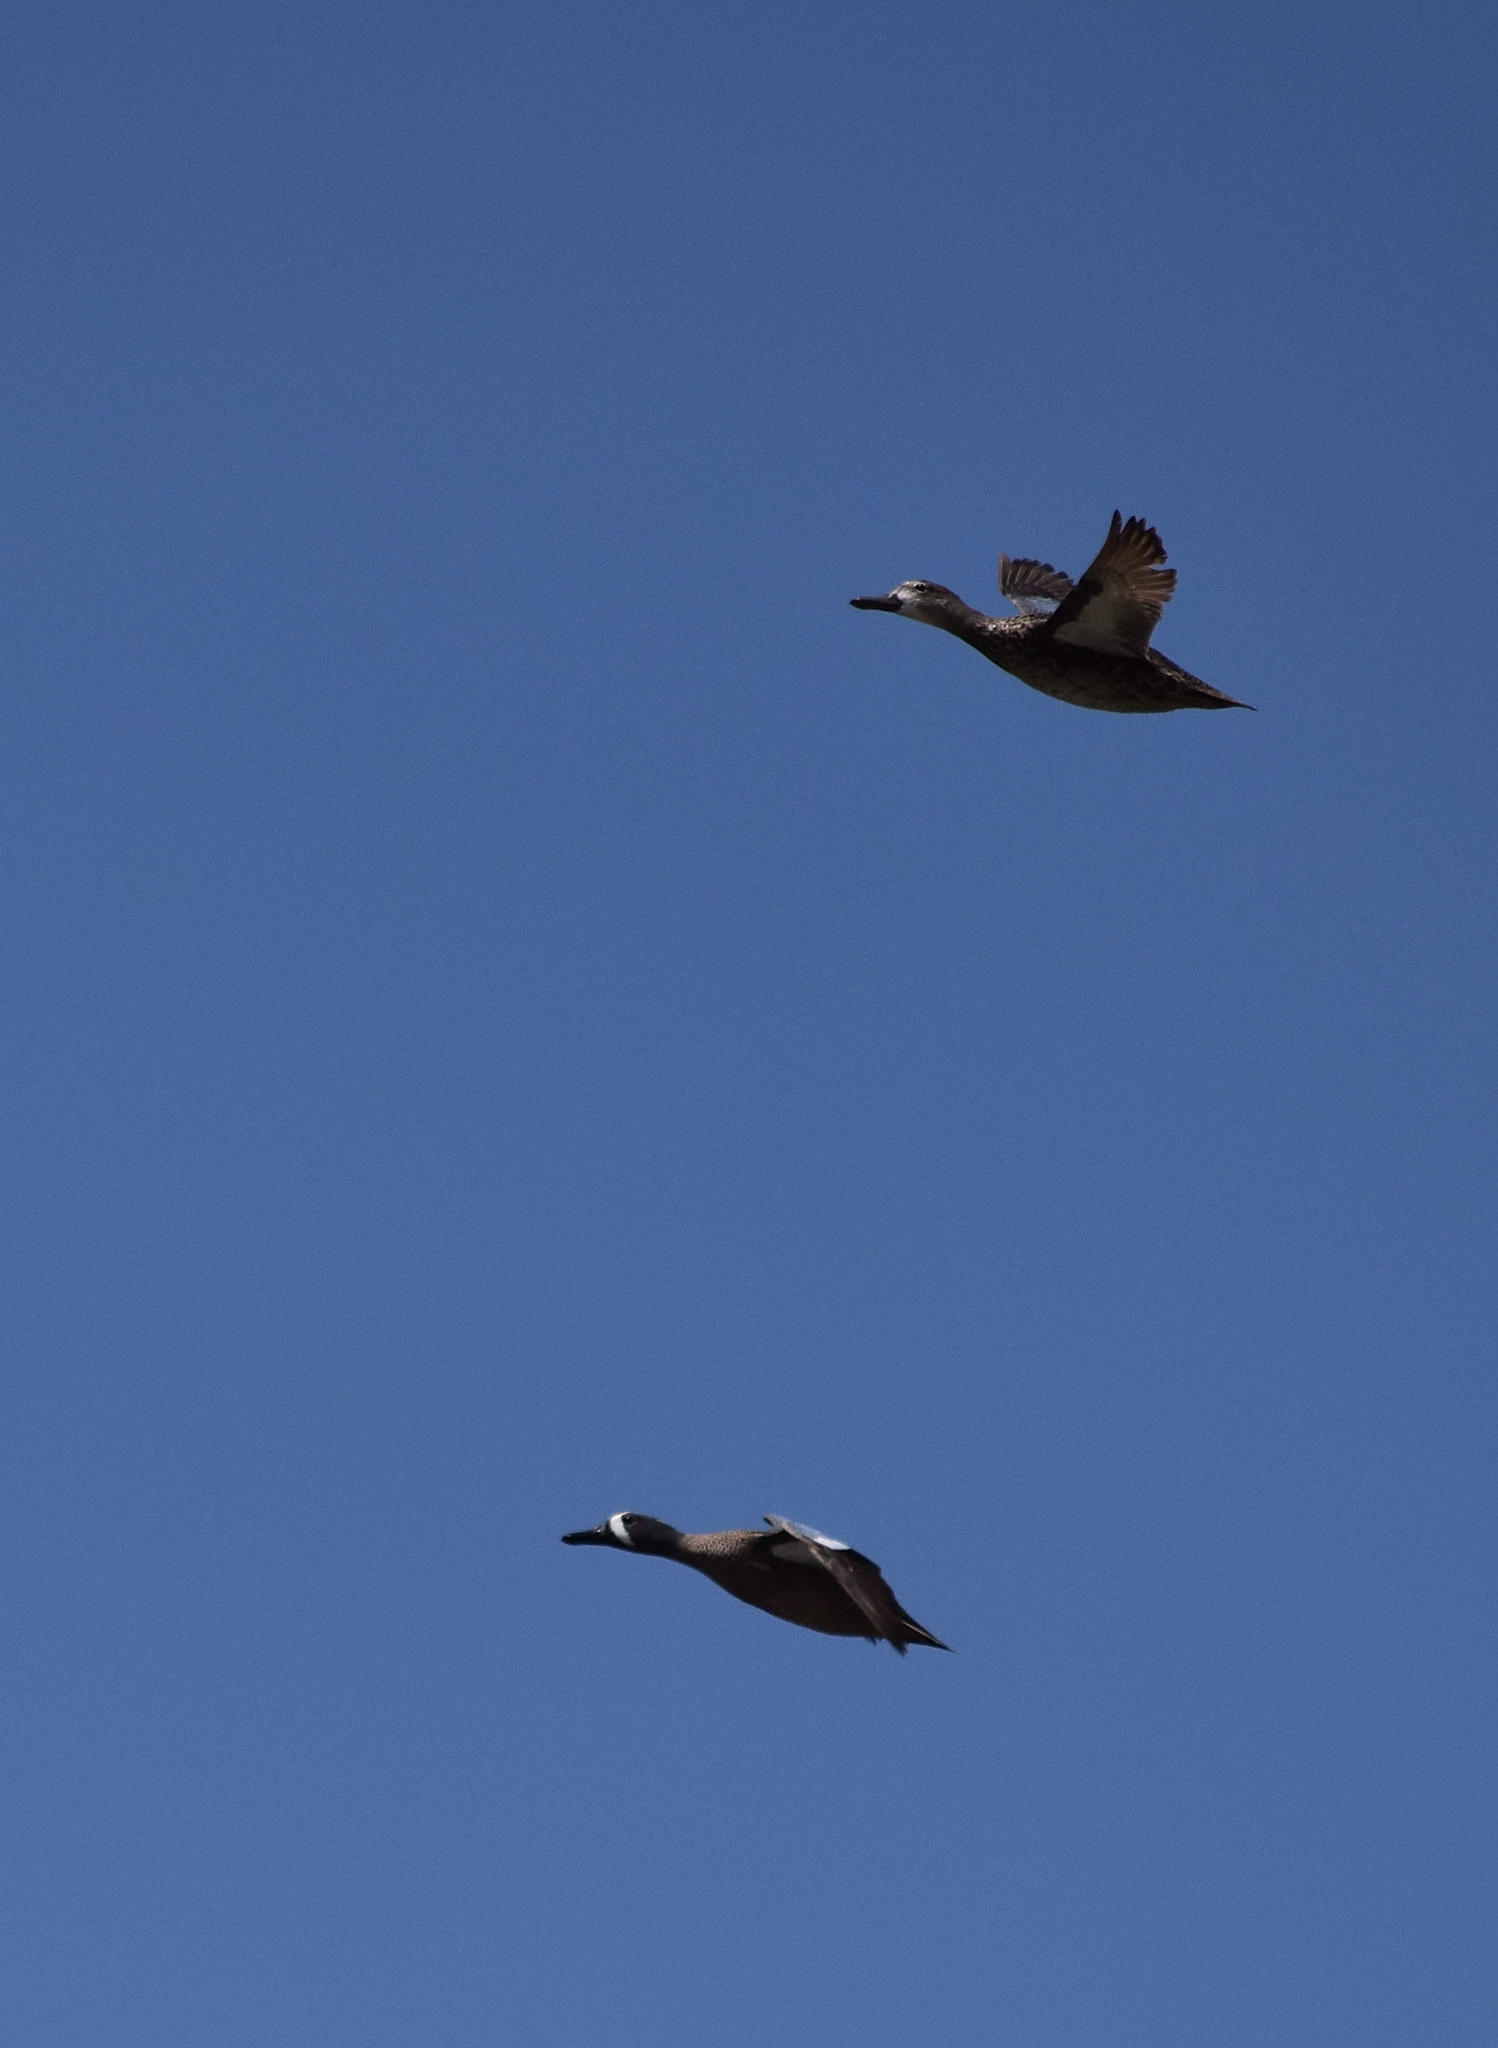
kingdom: Animalia
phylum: Chordata
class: Aves
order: Anseriformes
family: Anatidae
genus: Spatula
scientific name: Spatula discors
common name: Blue-winged teal
